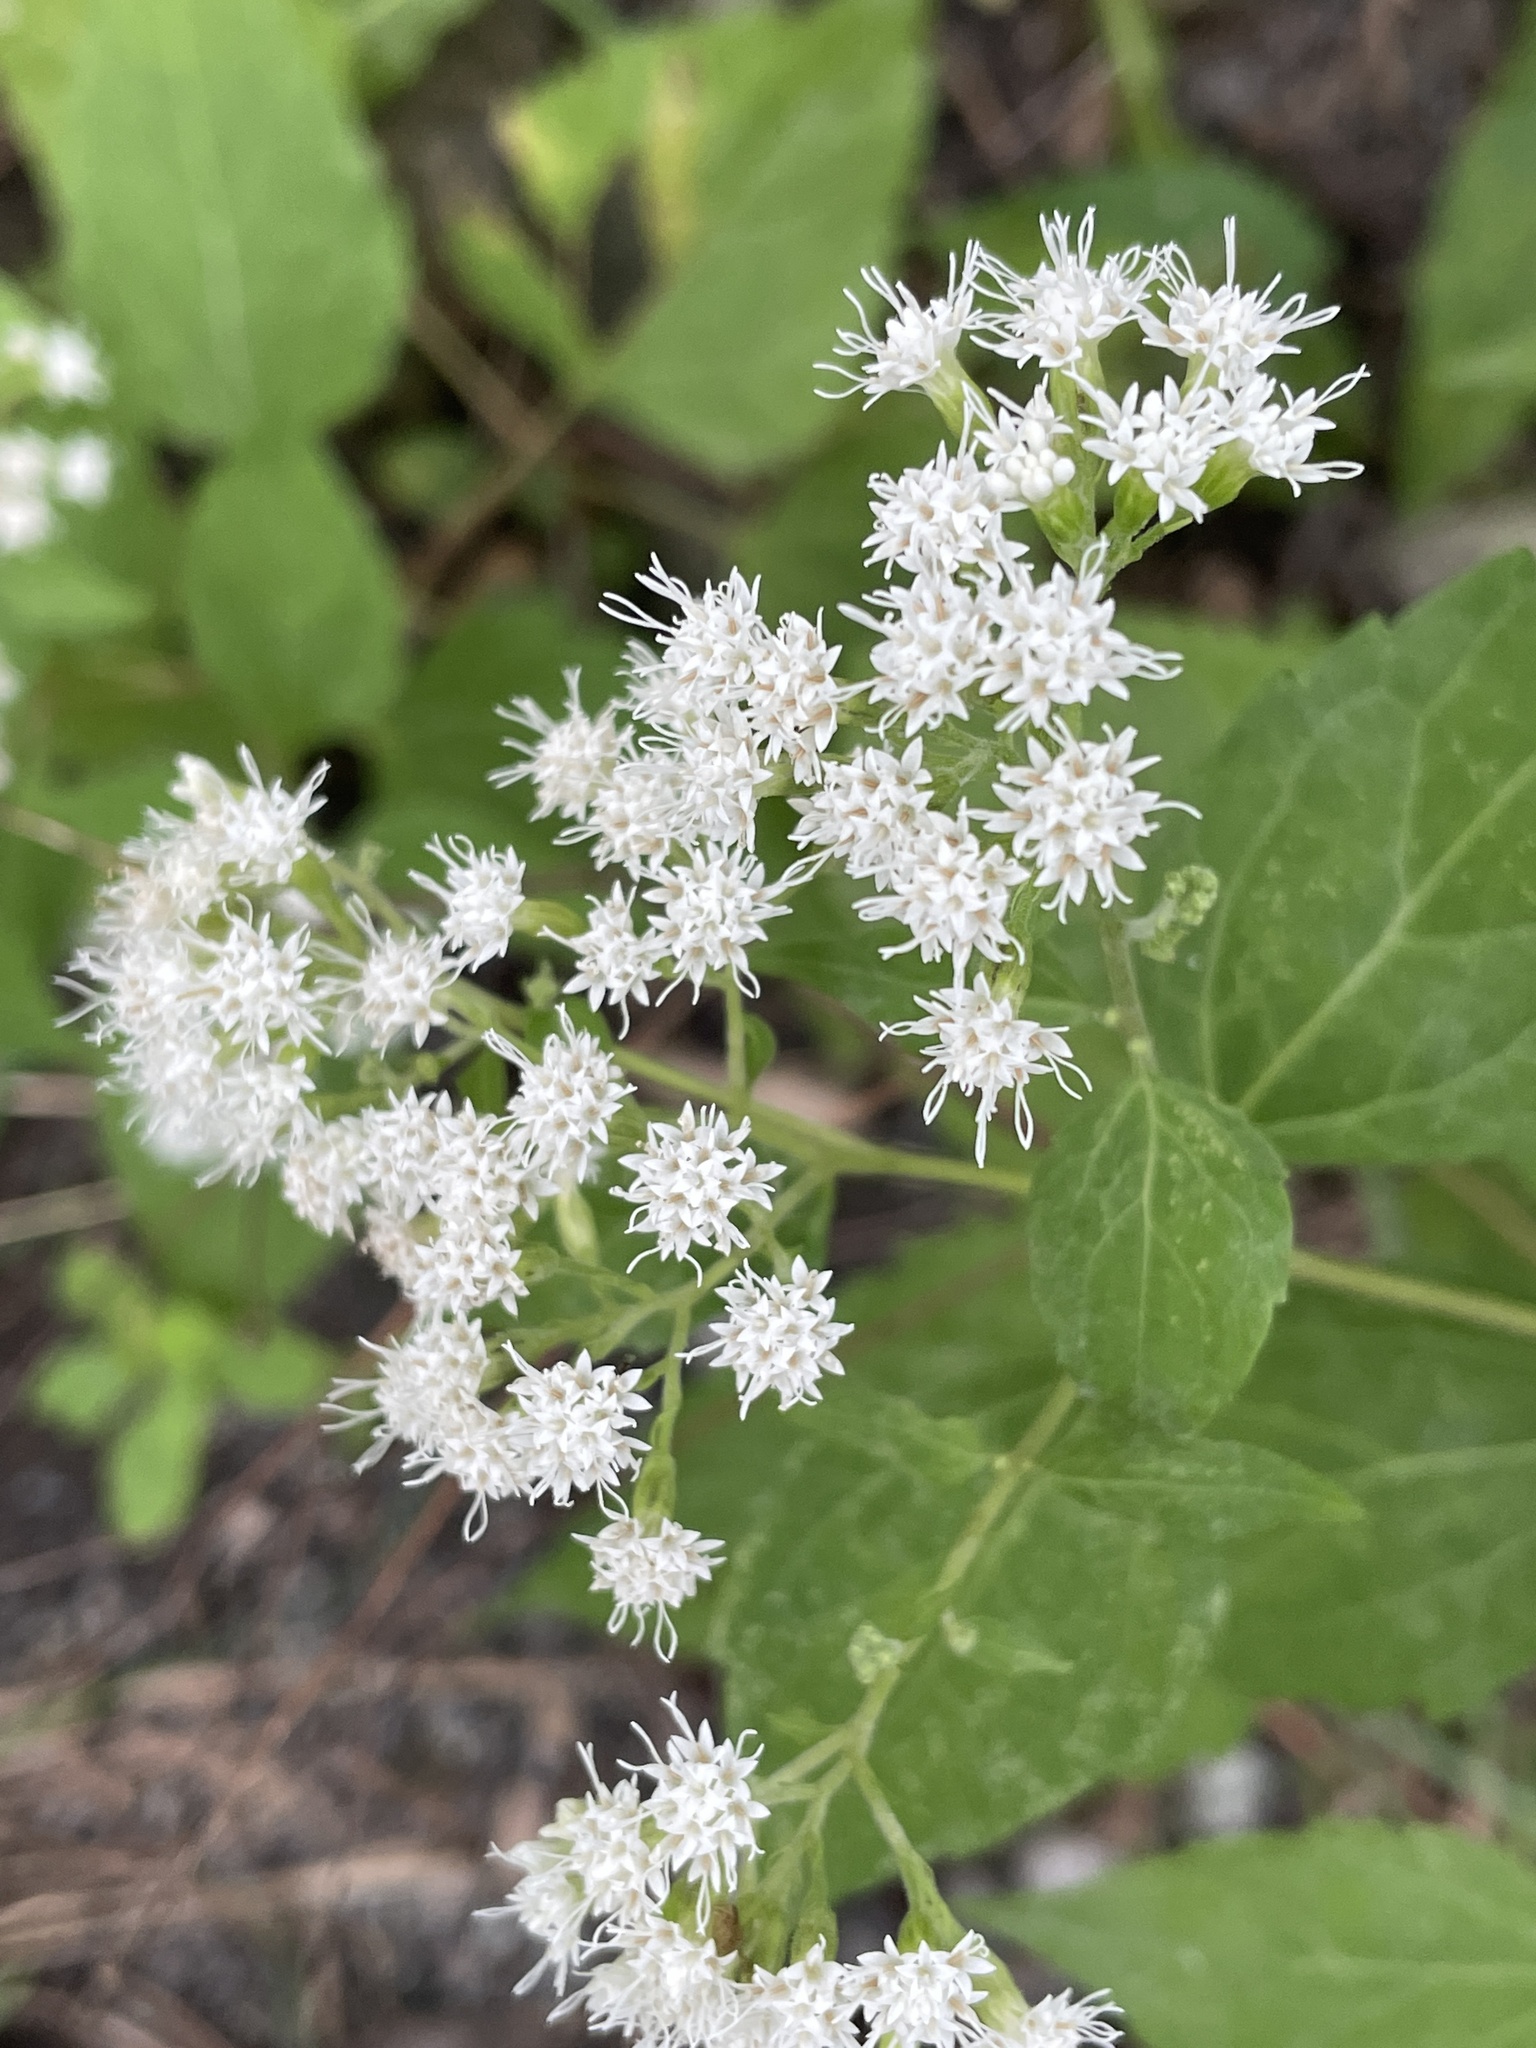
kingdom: Plantae
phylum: Tracheophyta
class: Magnoliopsida
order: Asterales
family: Asteraceae
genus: Ageratina
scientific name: Ageratina altissima
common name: White snakeroot
